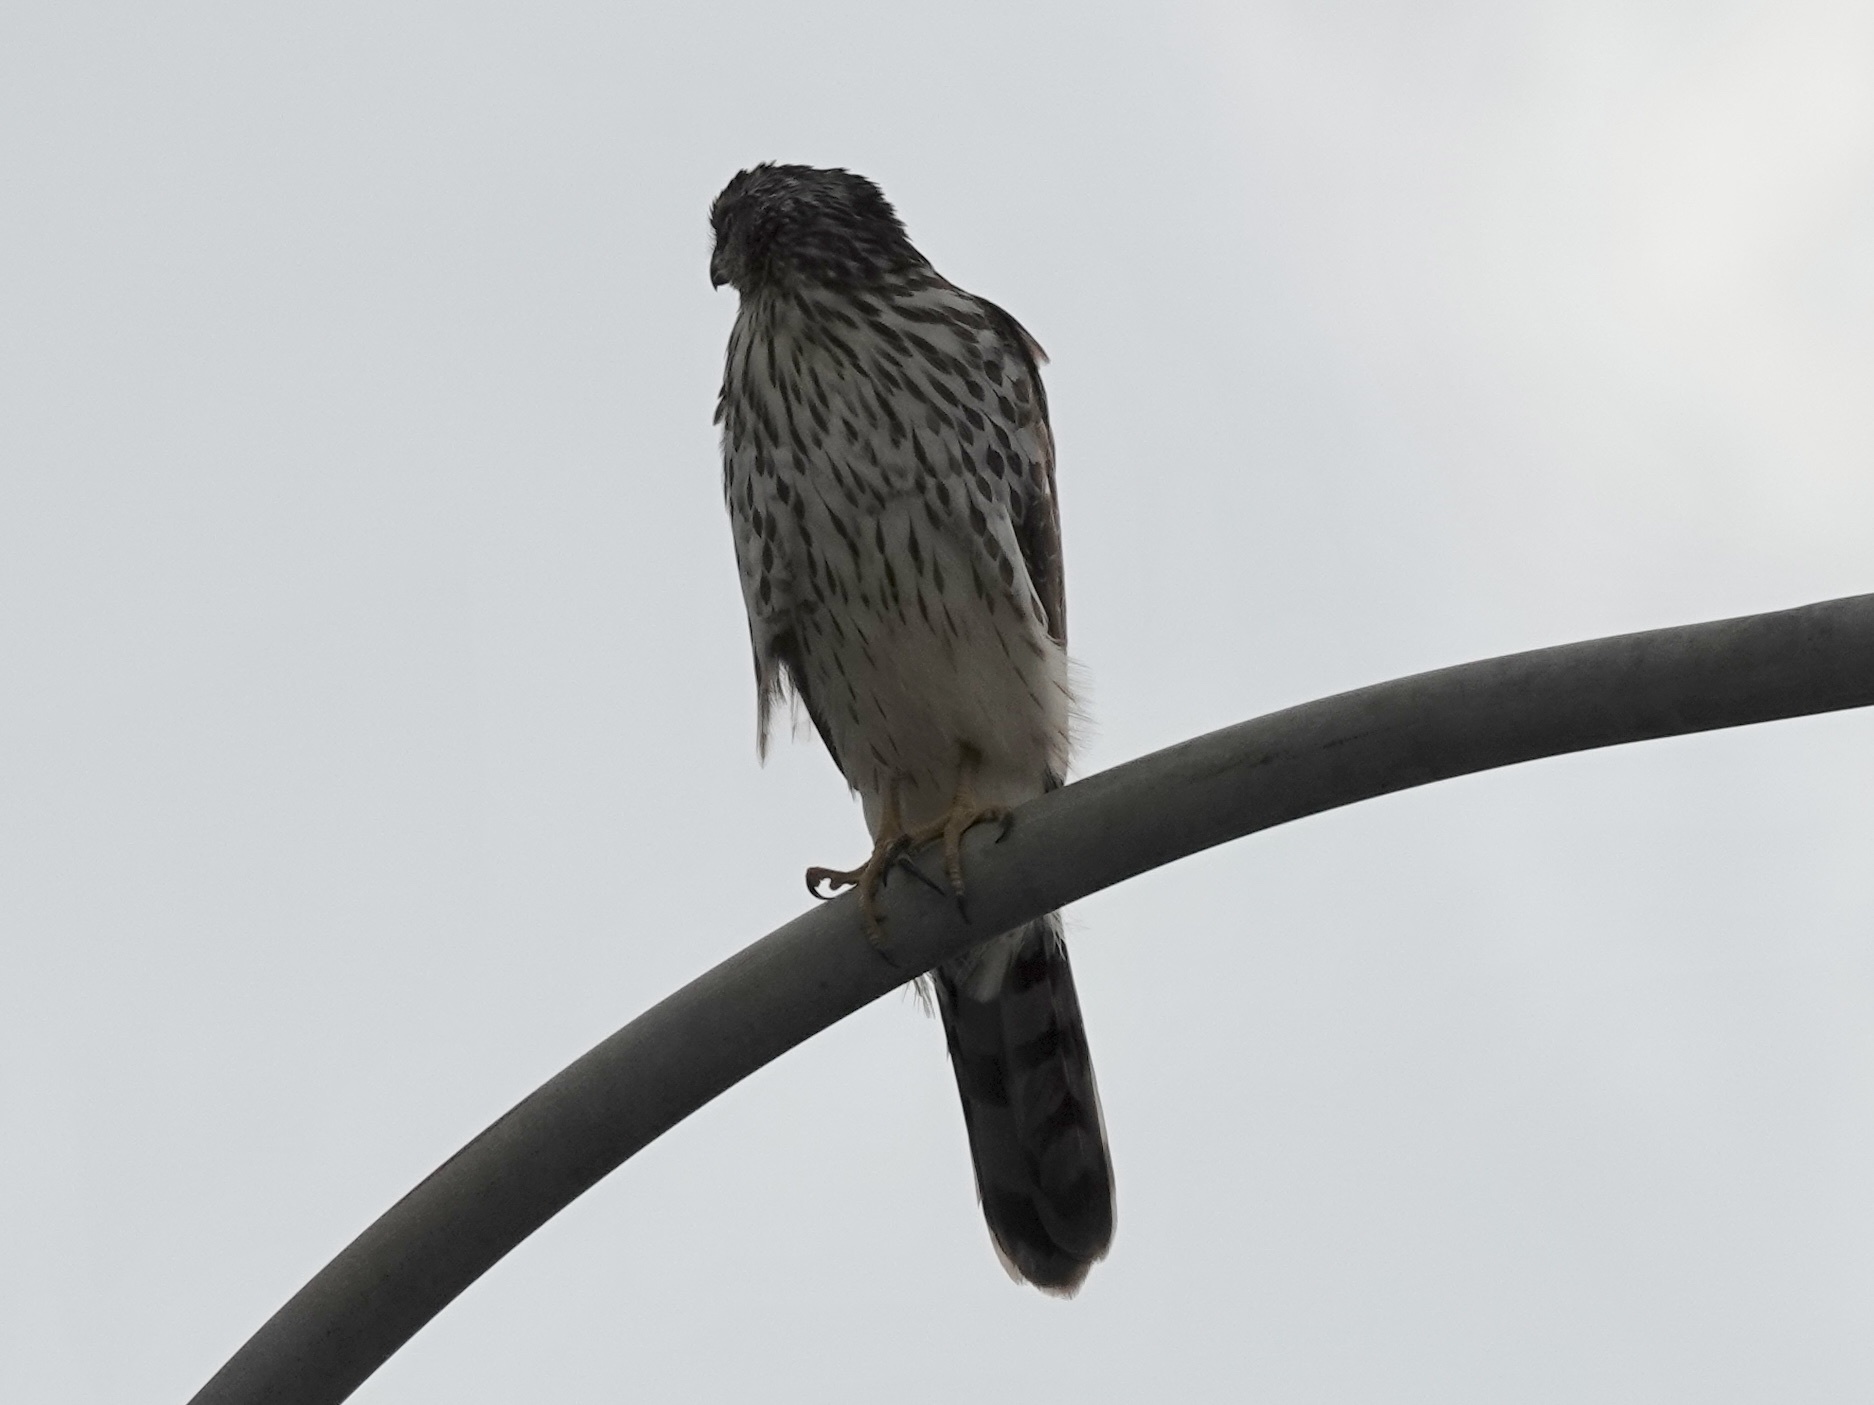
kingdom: Animalia
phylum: Chordata
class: Aves
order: Accipitriformes
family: Accipitridae
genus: Accipiter
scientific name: Accipiter cooperii
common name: Cooper's hawk
